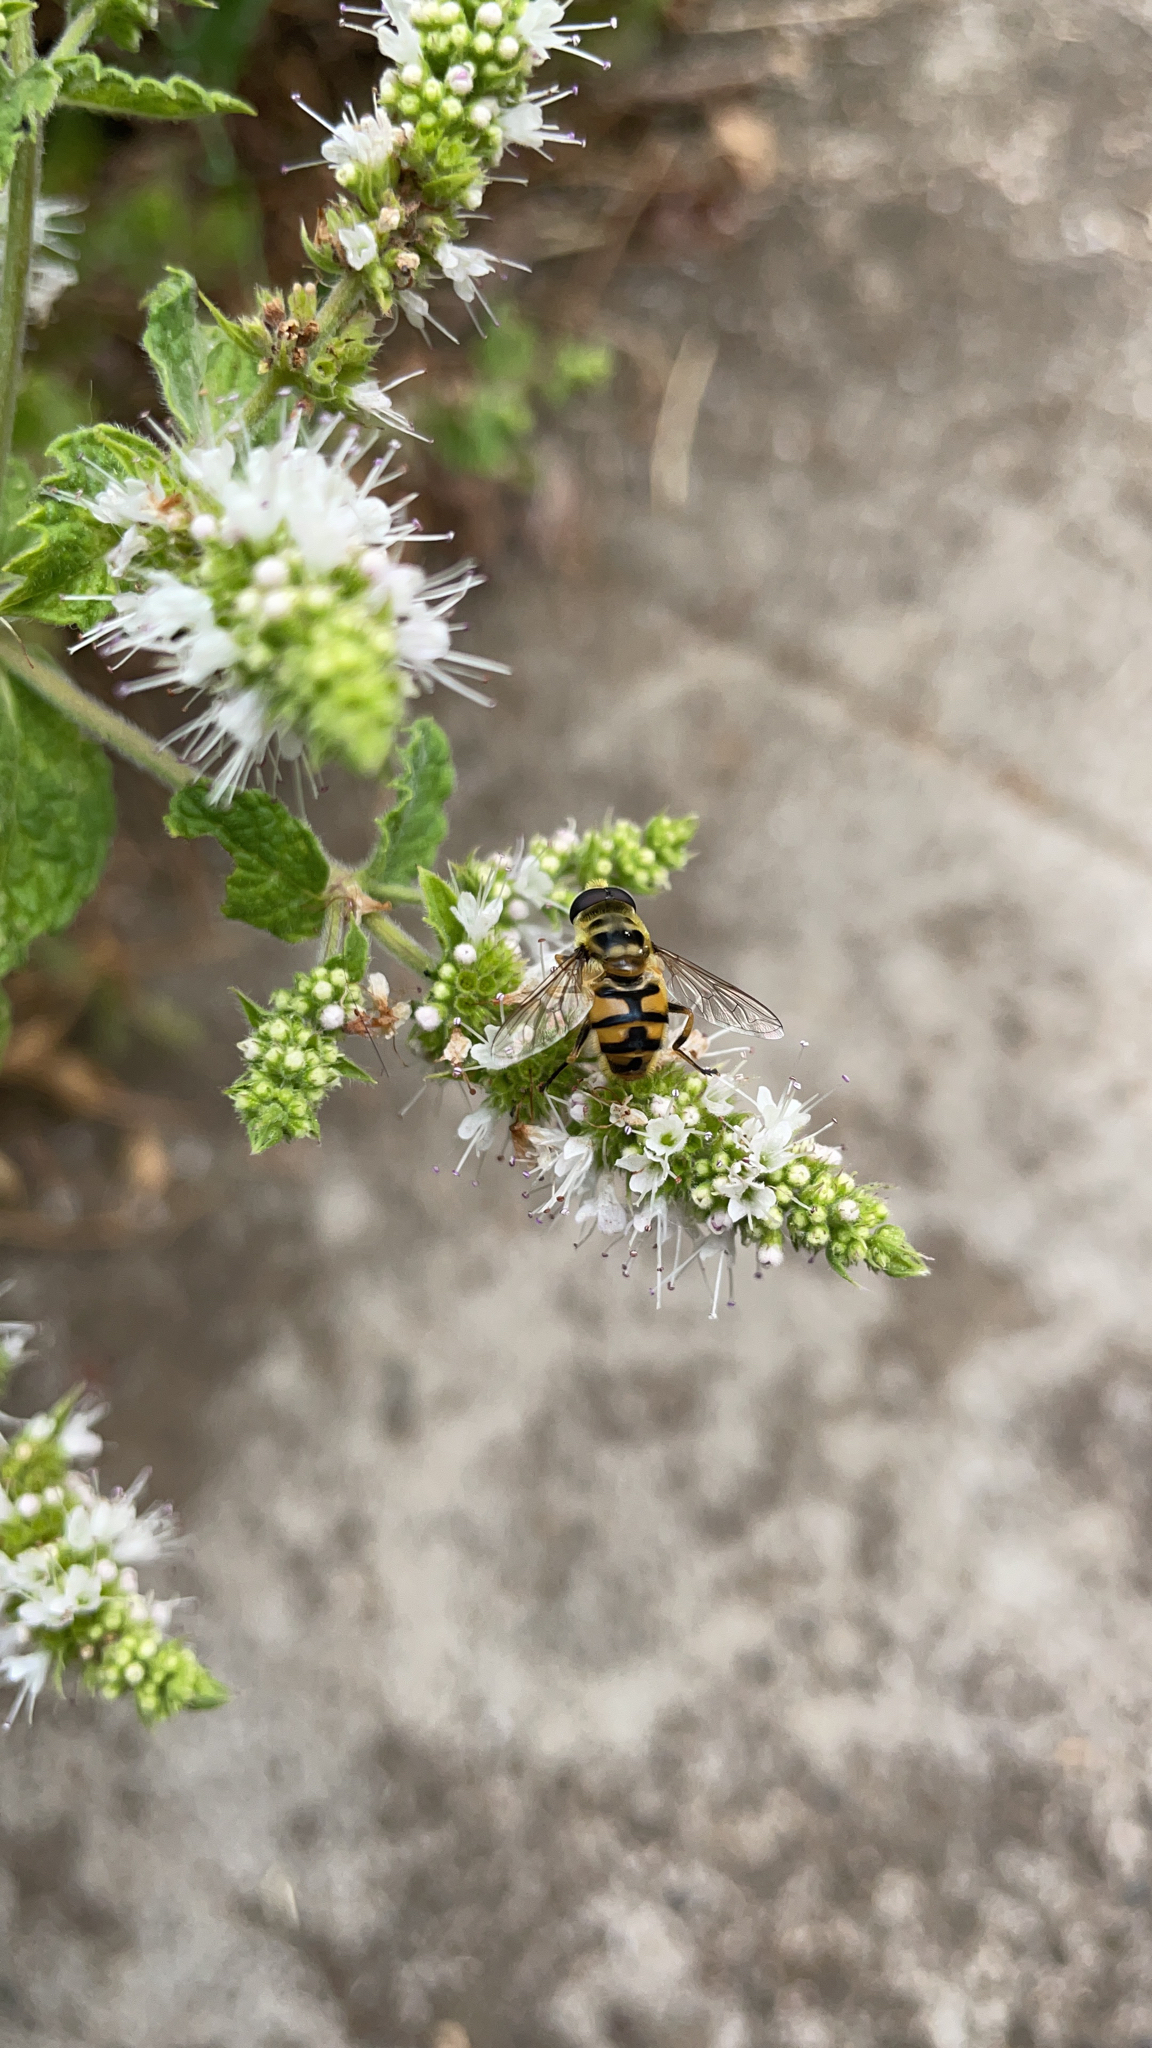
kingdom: Animalia
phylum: Arthropoda
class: Insecta
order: Diptera
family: Syrphidae
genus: Myathropa
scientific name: Myathropa florea
